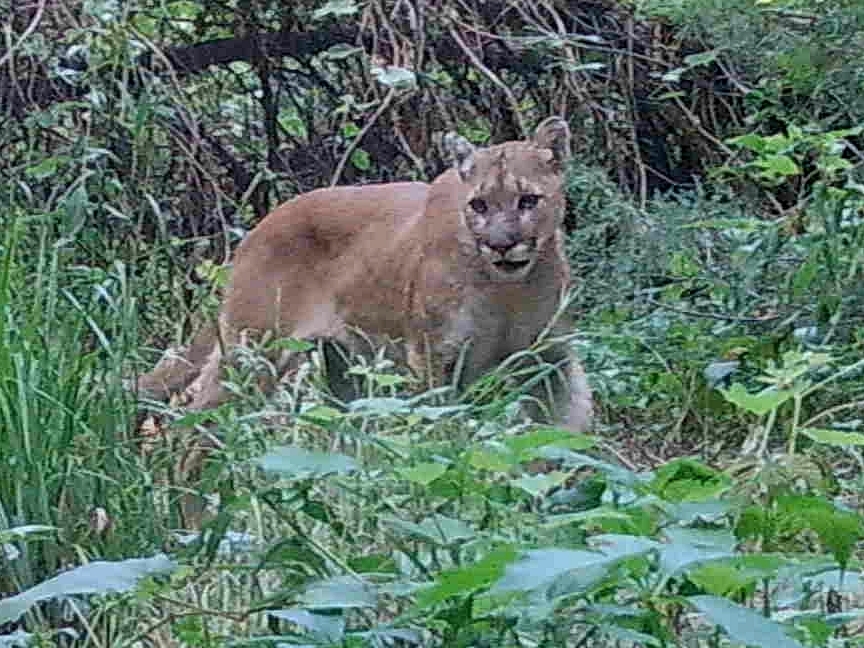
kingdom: Animalia
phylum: Chordata
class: Mammalia
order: Carnivora
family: Felidae
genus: Puma
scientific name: Puma concolor
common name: Puma
